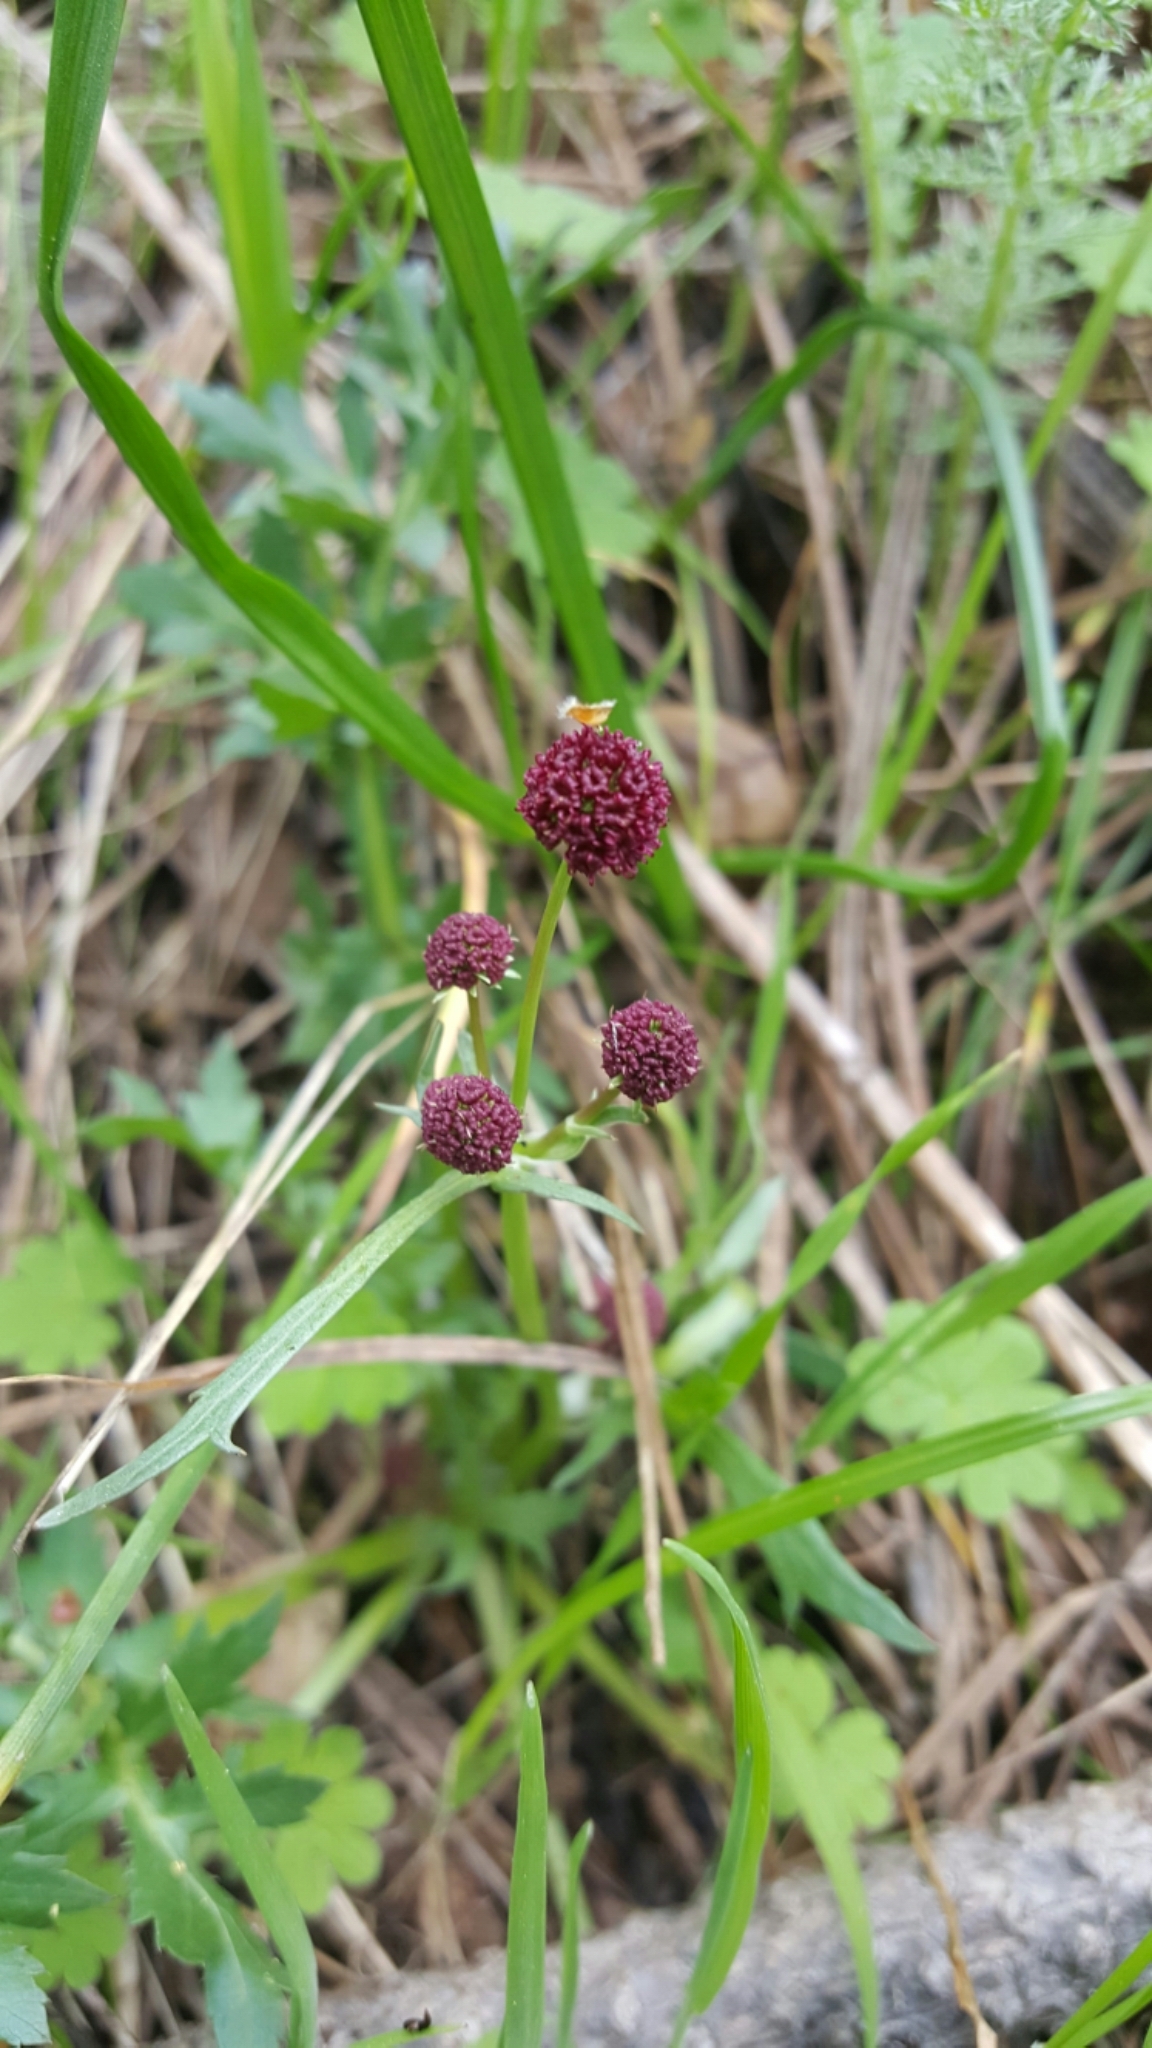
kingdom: Plantae
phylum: Tracheophyta
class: Magnoliopsida
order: Apiales
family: Apiaceae
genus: Sanicula
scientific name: Sanicula bipinnatifida
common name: Shoe-buttons
